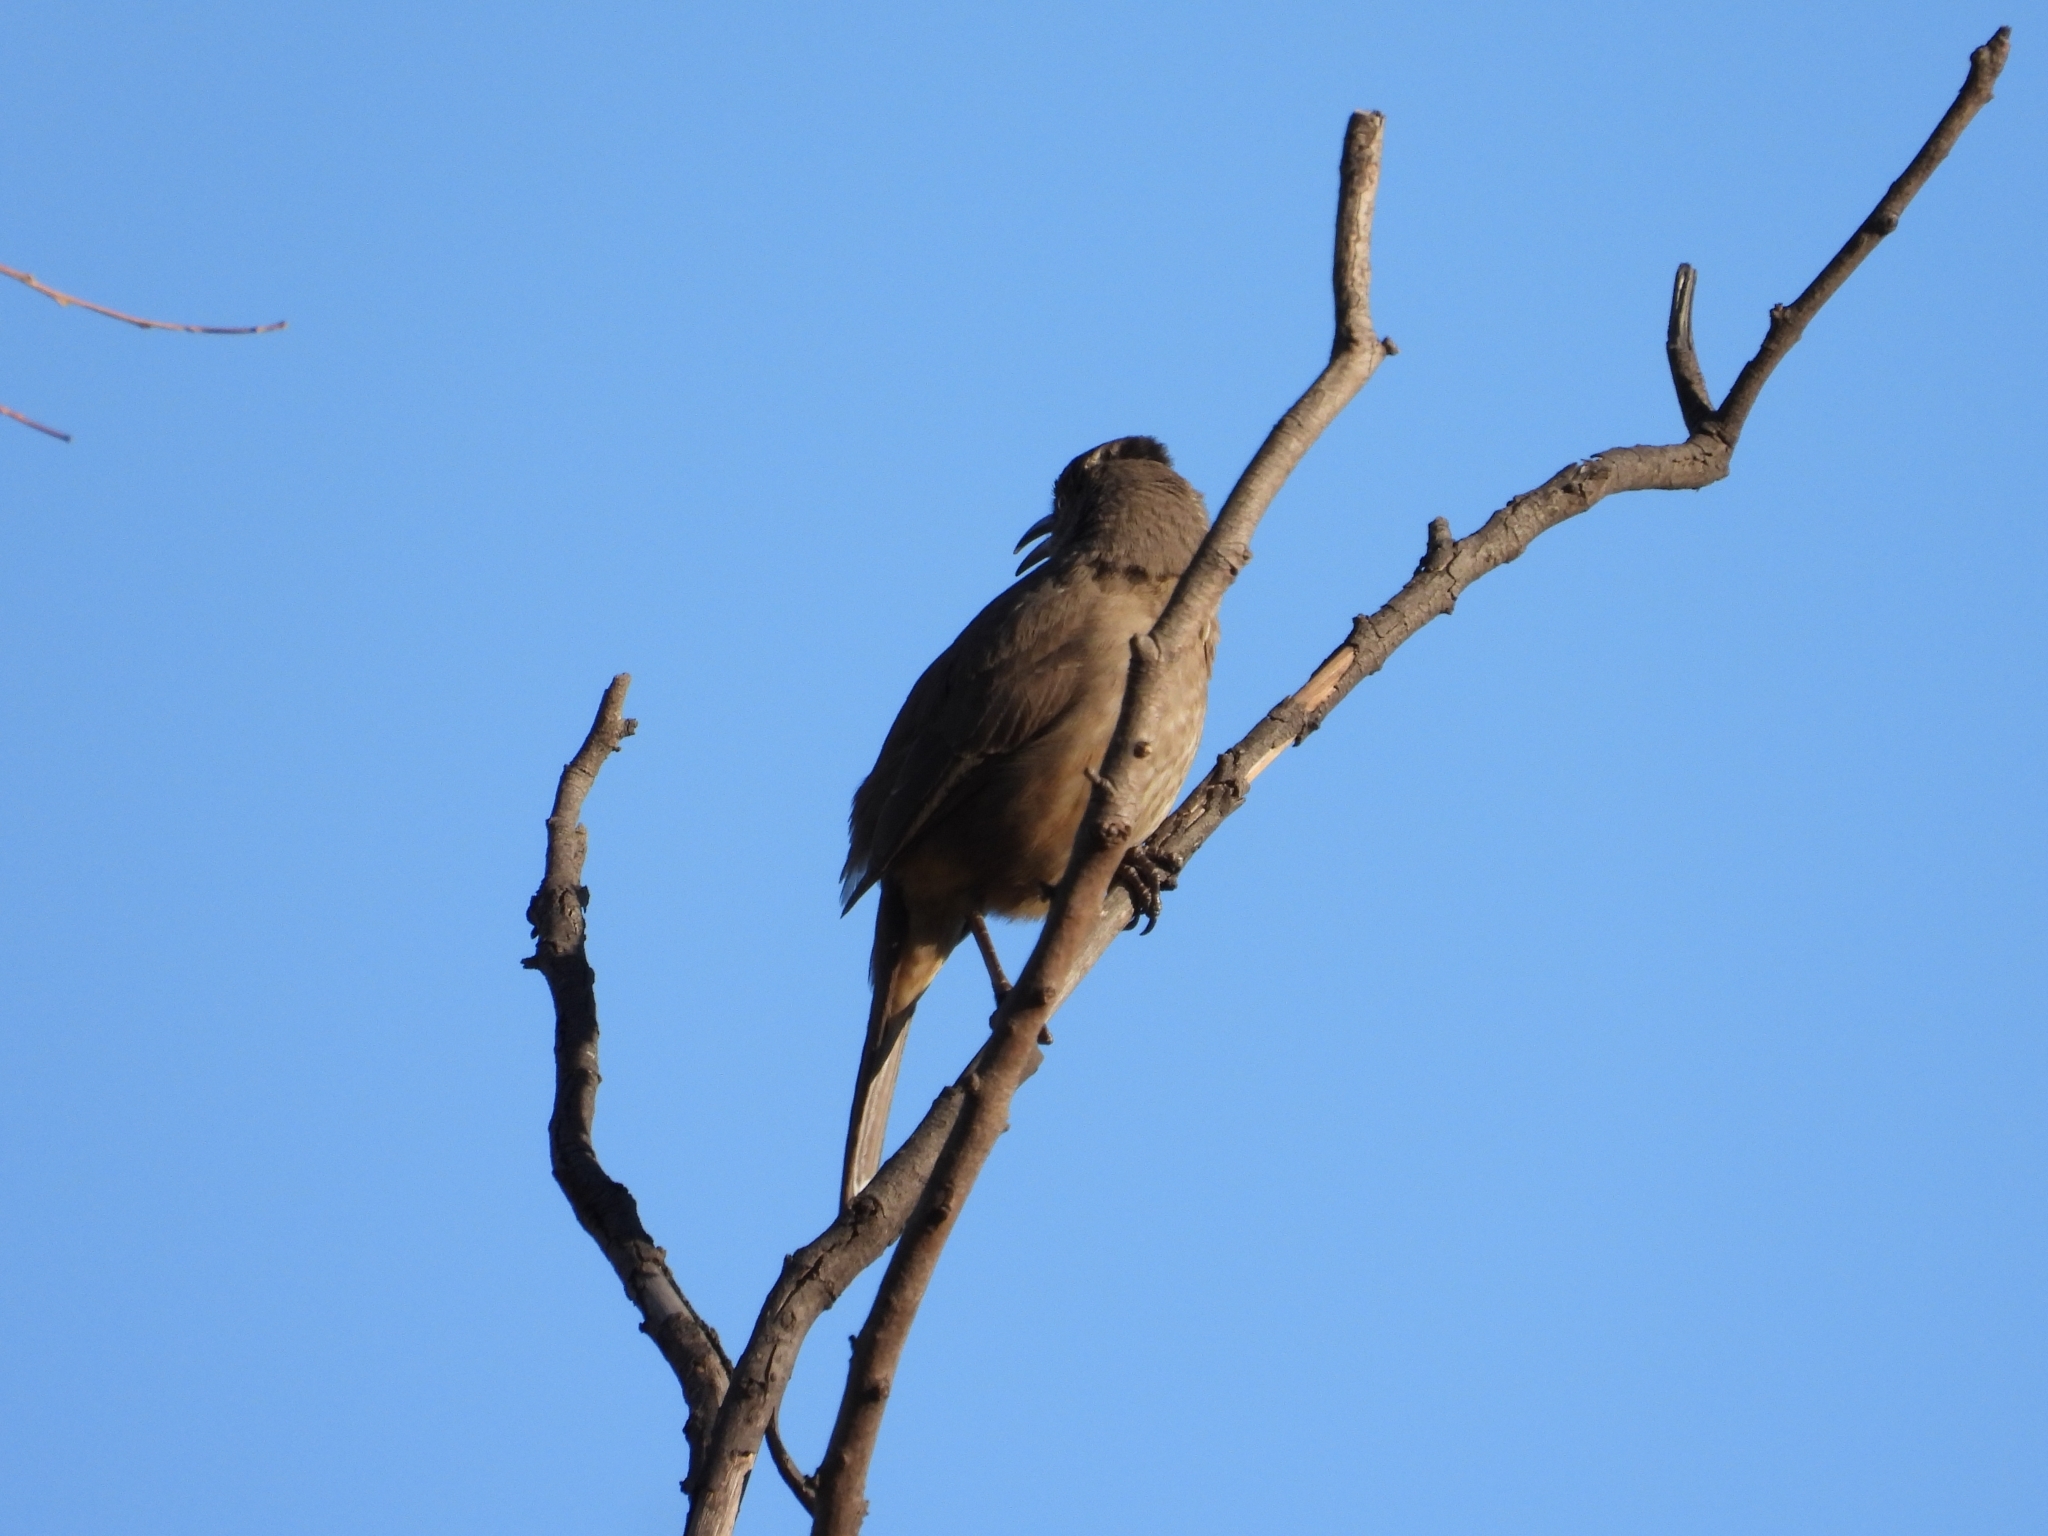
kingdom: Animalia
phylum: Chordata
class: Aves
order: Passeriformes
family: Mimidae
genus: Toxostoma
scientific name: Toxostoma curvirostre
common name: Curve-billed thrasher
